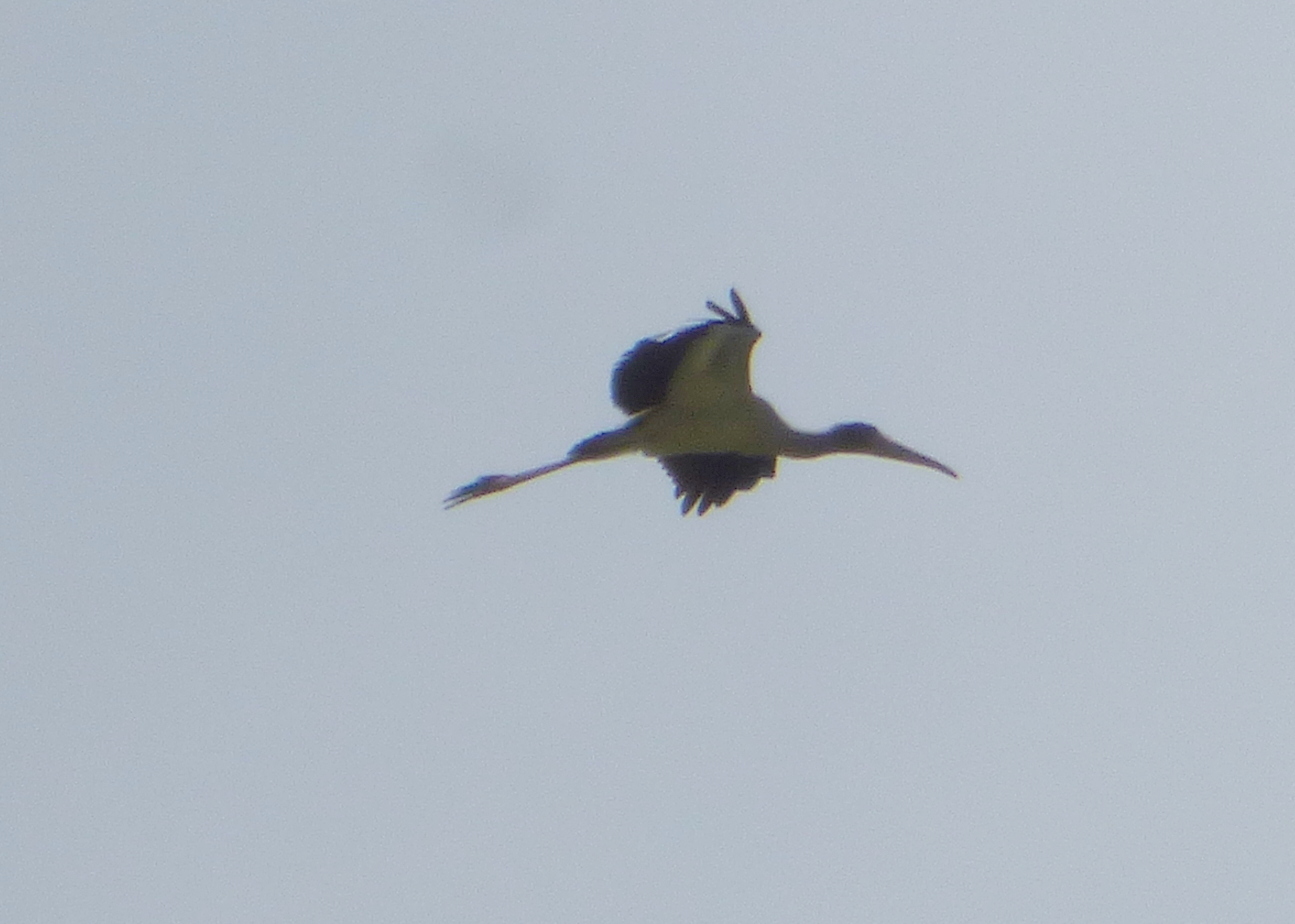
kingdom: Animalia
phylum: Chordata
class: Aves
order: Ciconiiformes
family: Ciconiidae
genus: Mycteria
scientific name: Mycteria americana
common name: Wood stork
